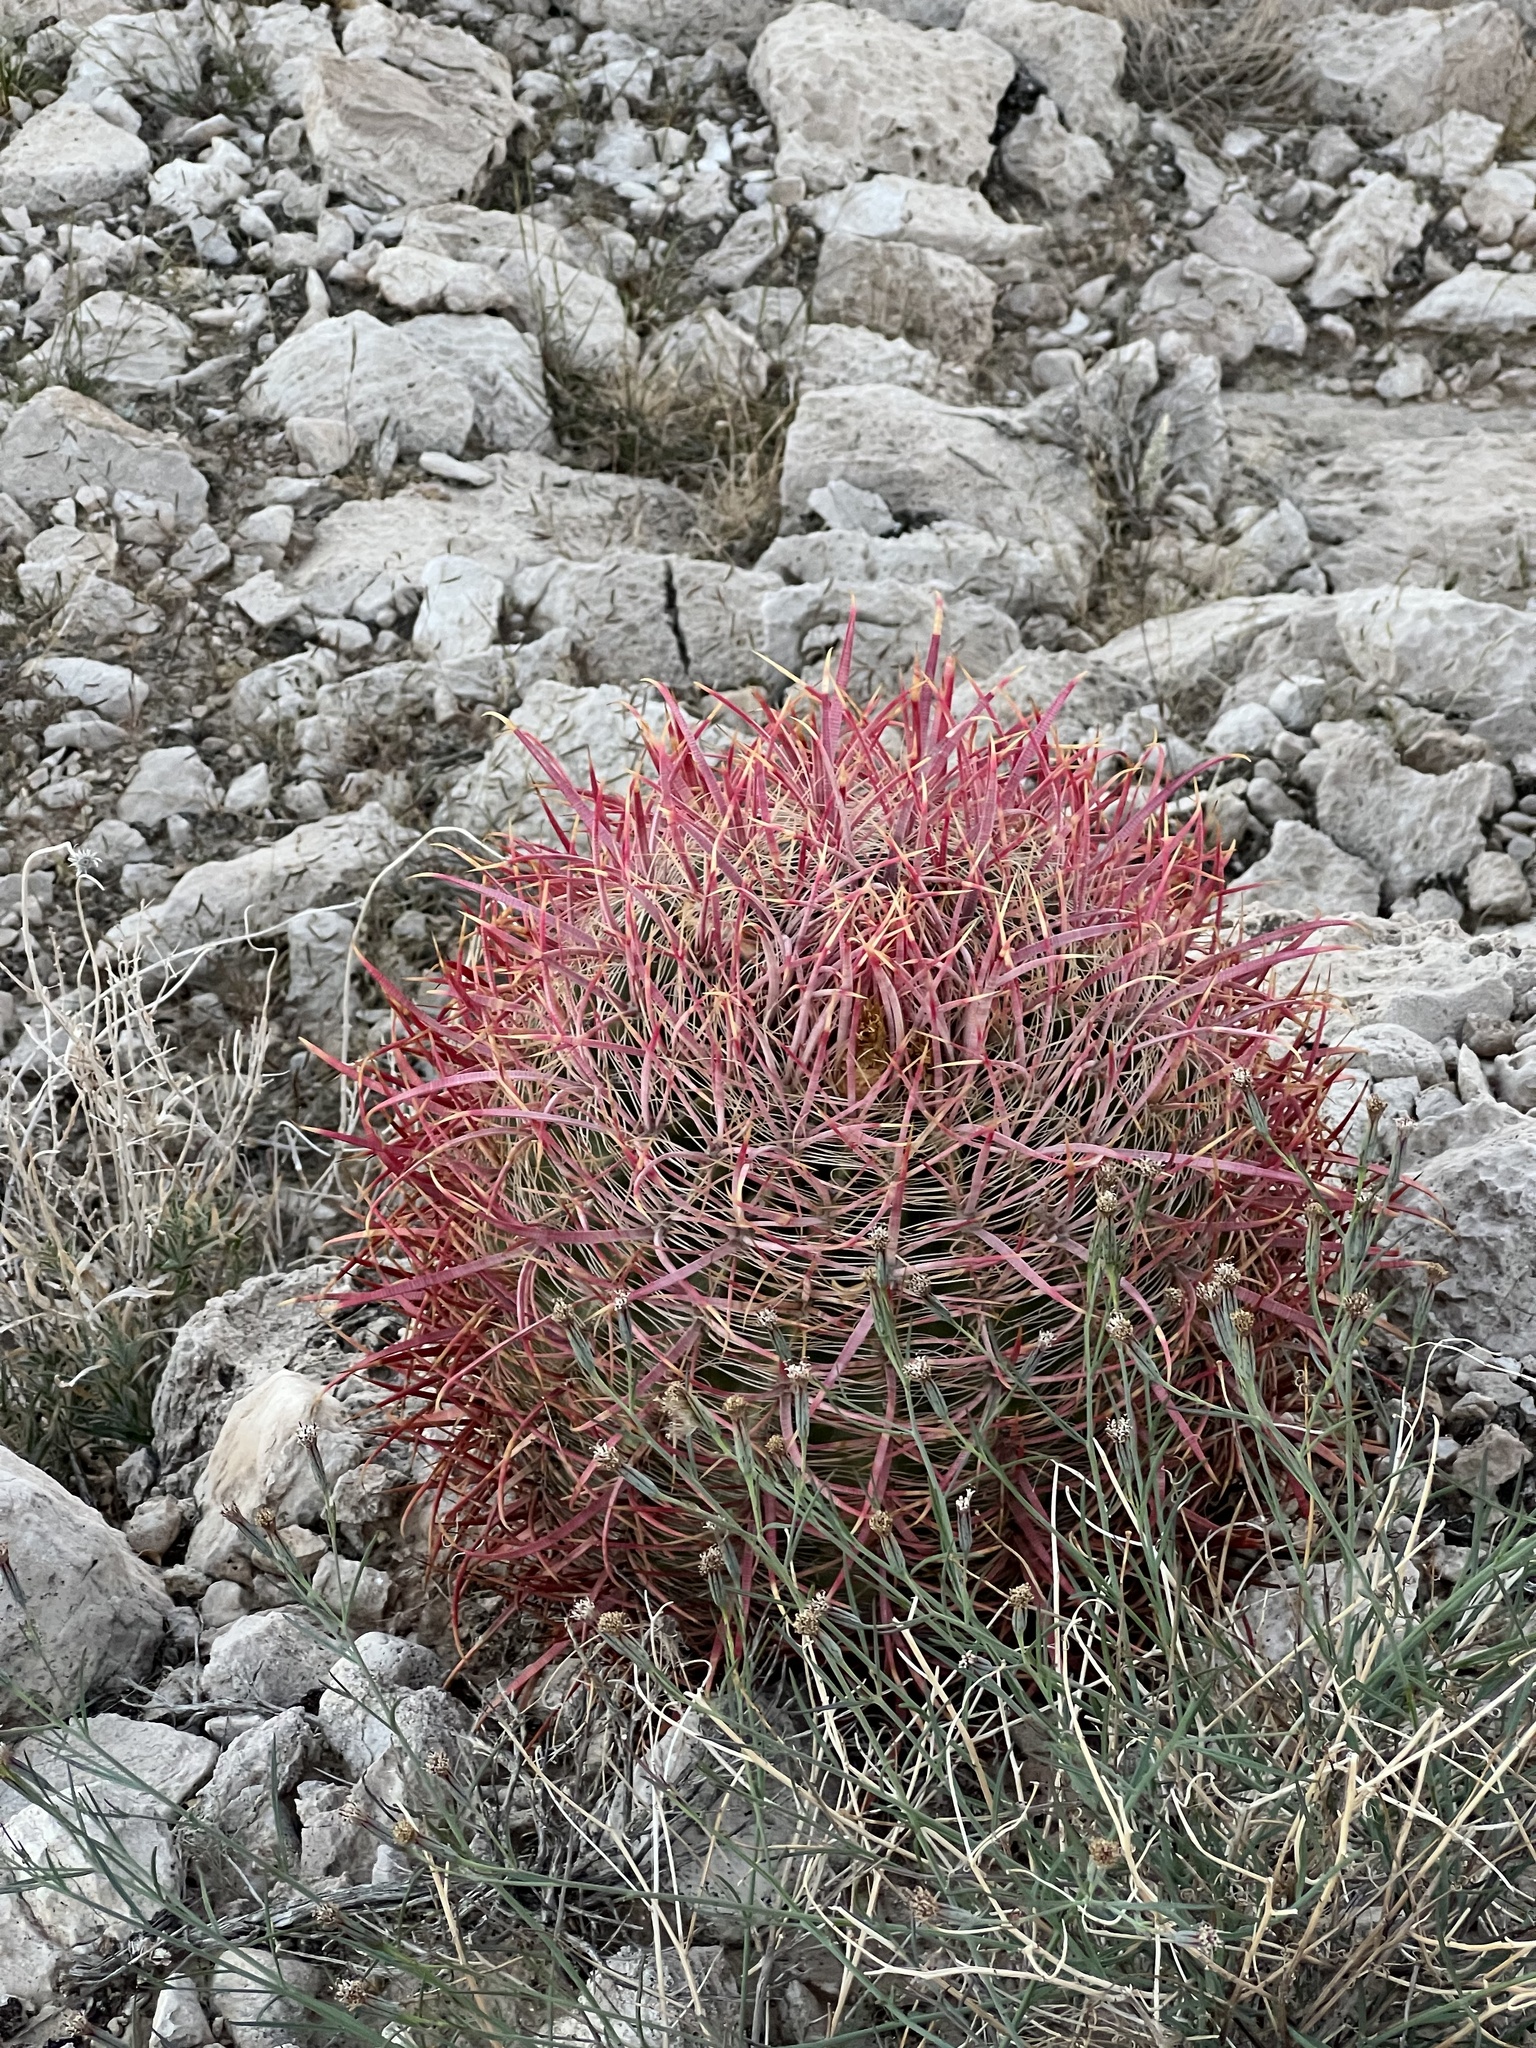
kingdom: Plantae
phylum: Tracheophyta
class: Magnoliopsida
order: Caryophyllales
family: Cactaceae
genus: Ferocactus
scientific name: Ferocactus cylindraceus
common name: California barrel cactus
